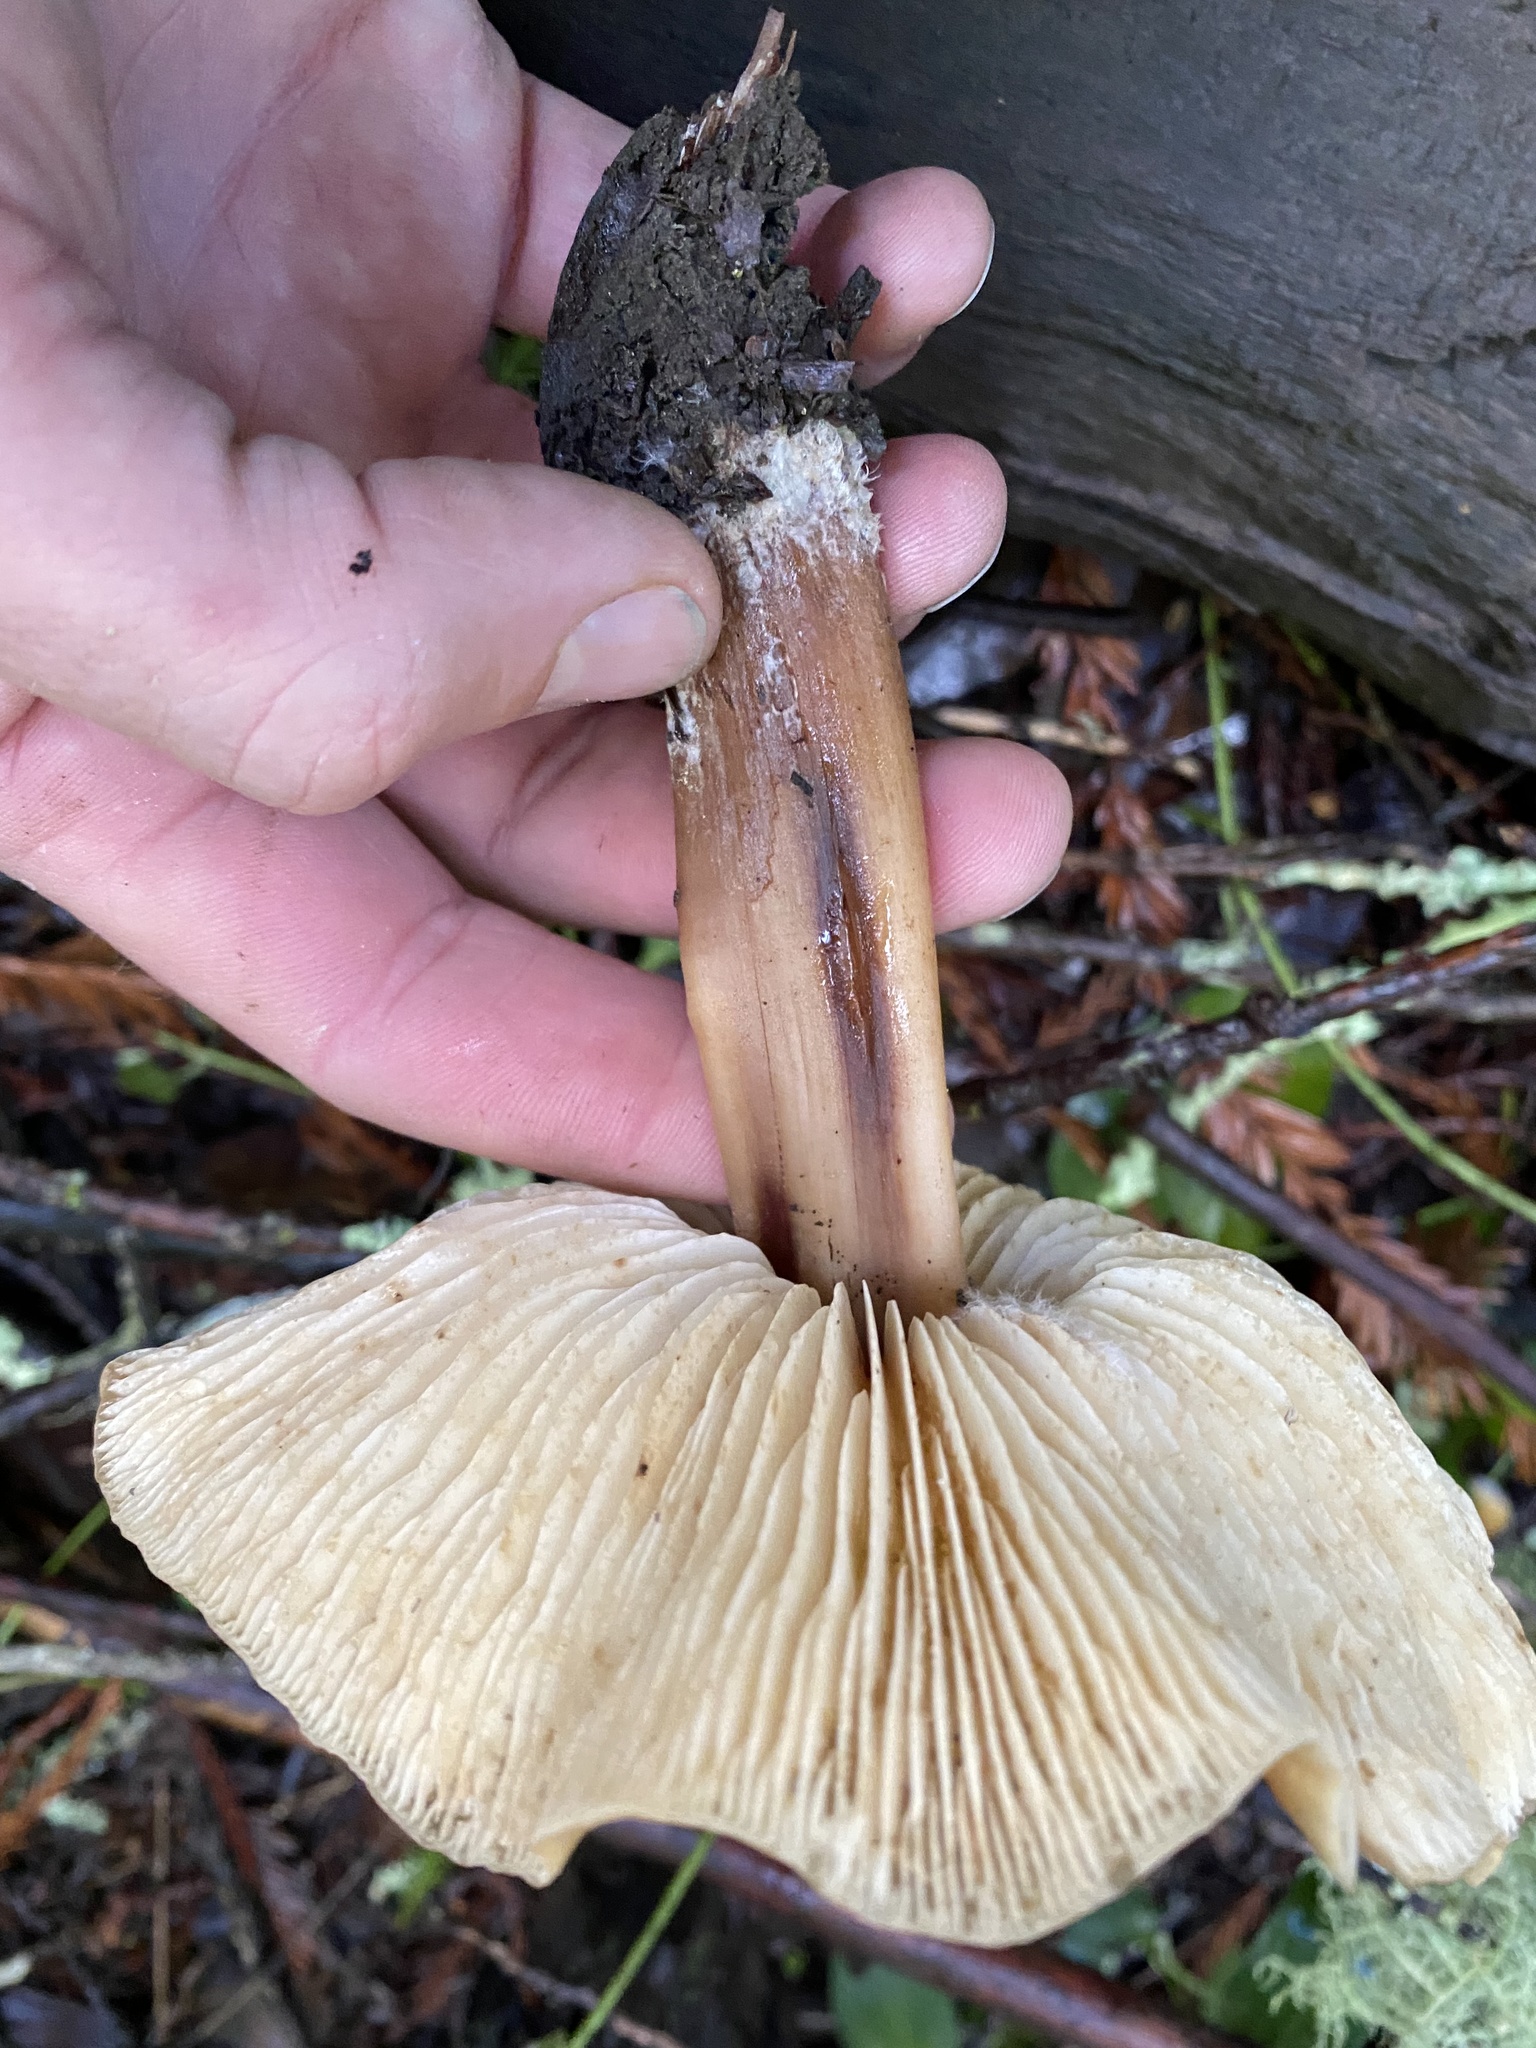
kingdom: Fungi
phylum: Basidiomycota
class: Agaricomycetes
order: Agaricales
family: Tricholomataceae
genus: Caulorhiza
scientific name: Caulorhiza umbonata
